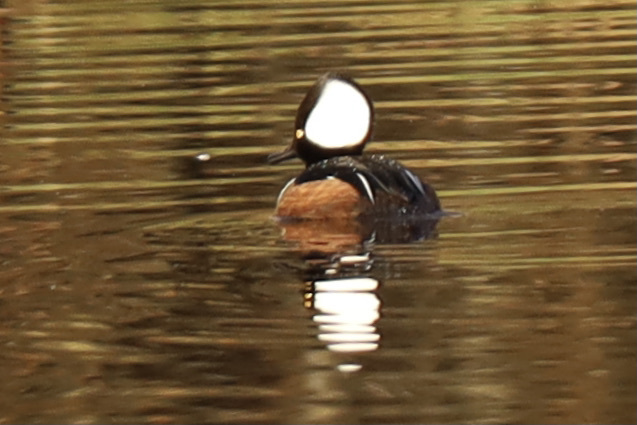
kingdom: Animalia
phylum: Chordata
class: Aves
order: Anseriformes
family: Anatidae
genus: Lophodytes
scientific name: Lophodytes cucullatus
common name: Hooded merganser
